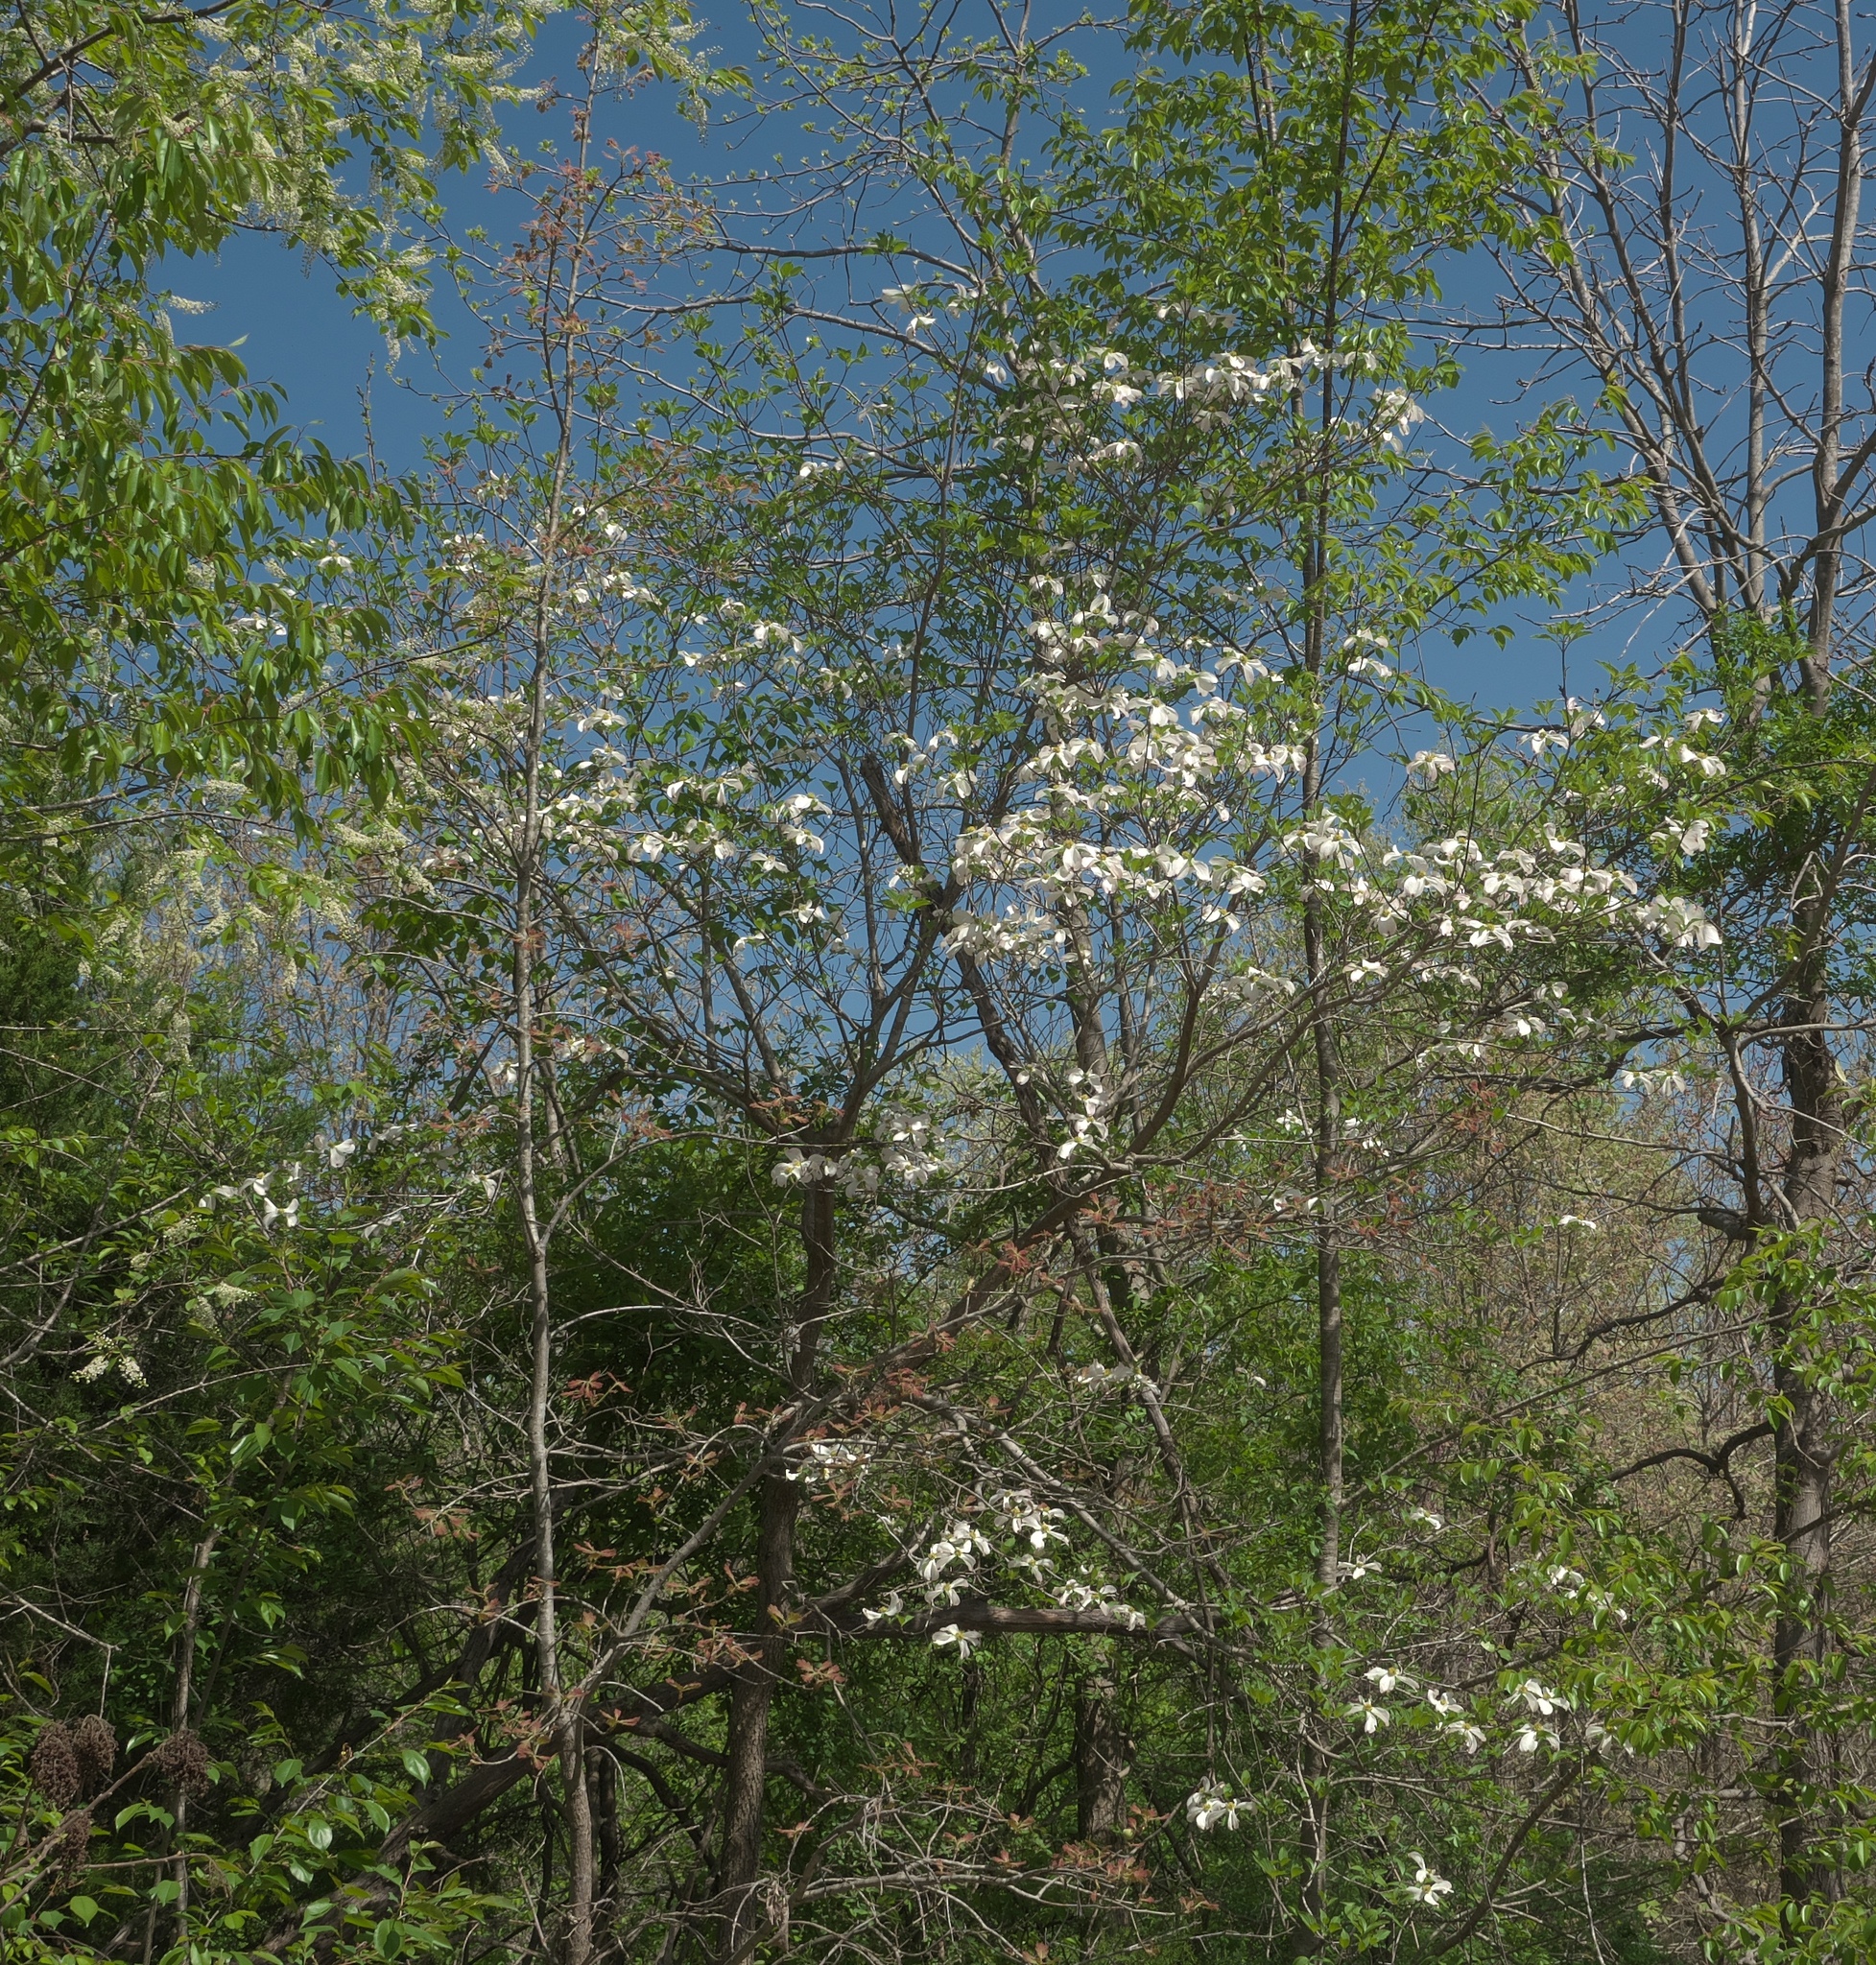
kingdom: Plantae
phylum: Tracheophyta
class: Magnoliopsida
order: Cornales
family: Cornaceae
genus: Cornus
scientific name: Cornus florida
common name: Flowering dogwood
